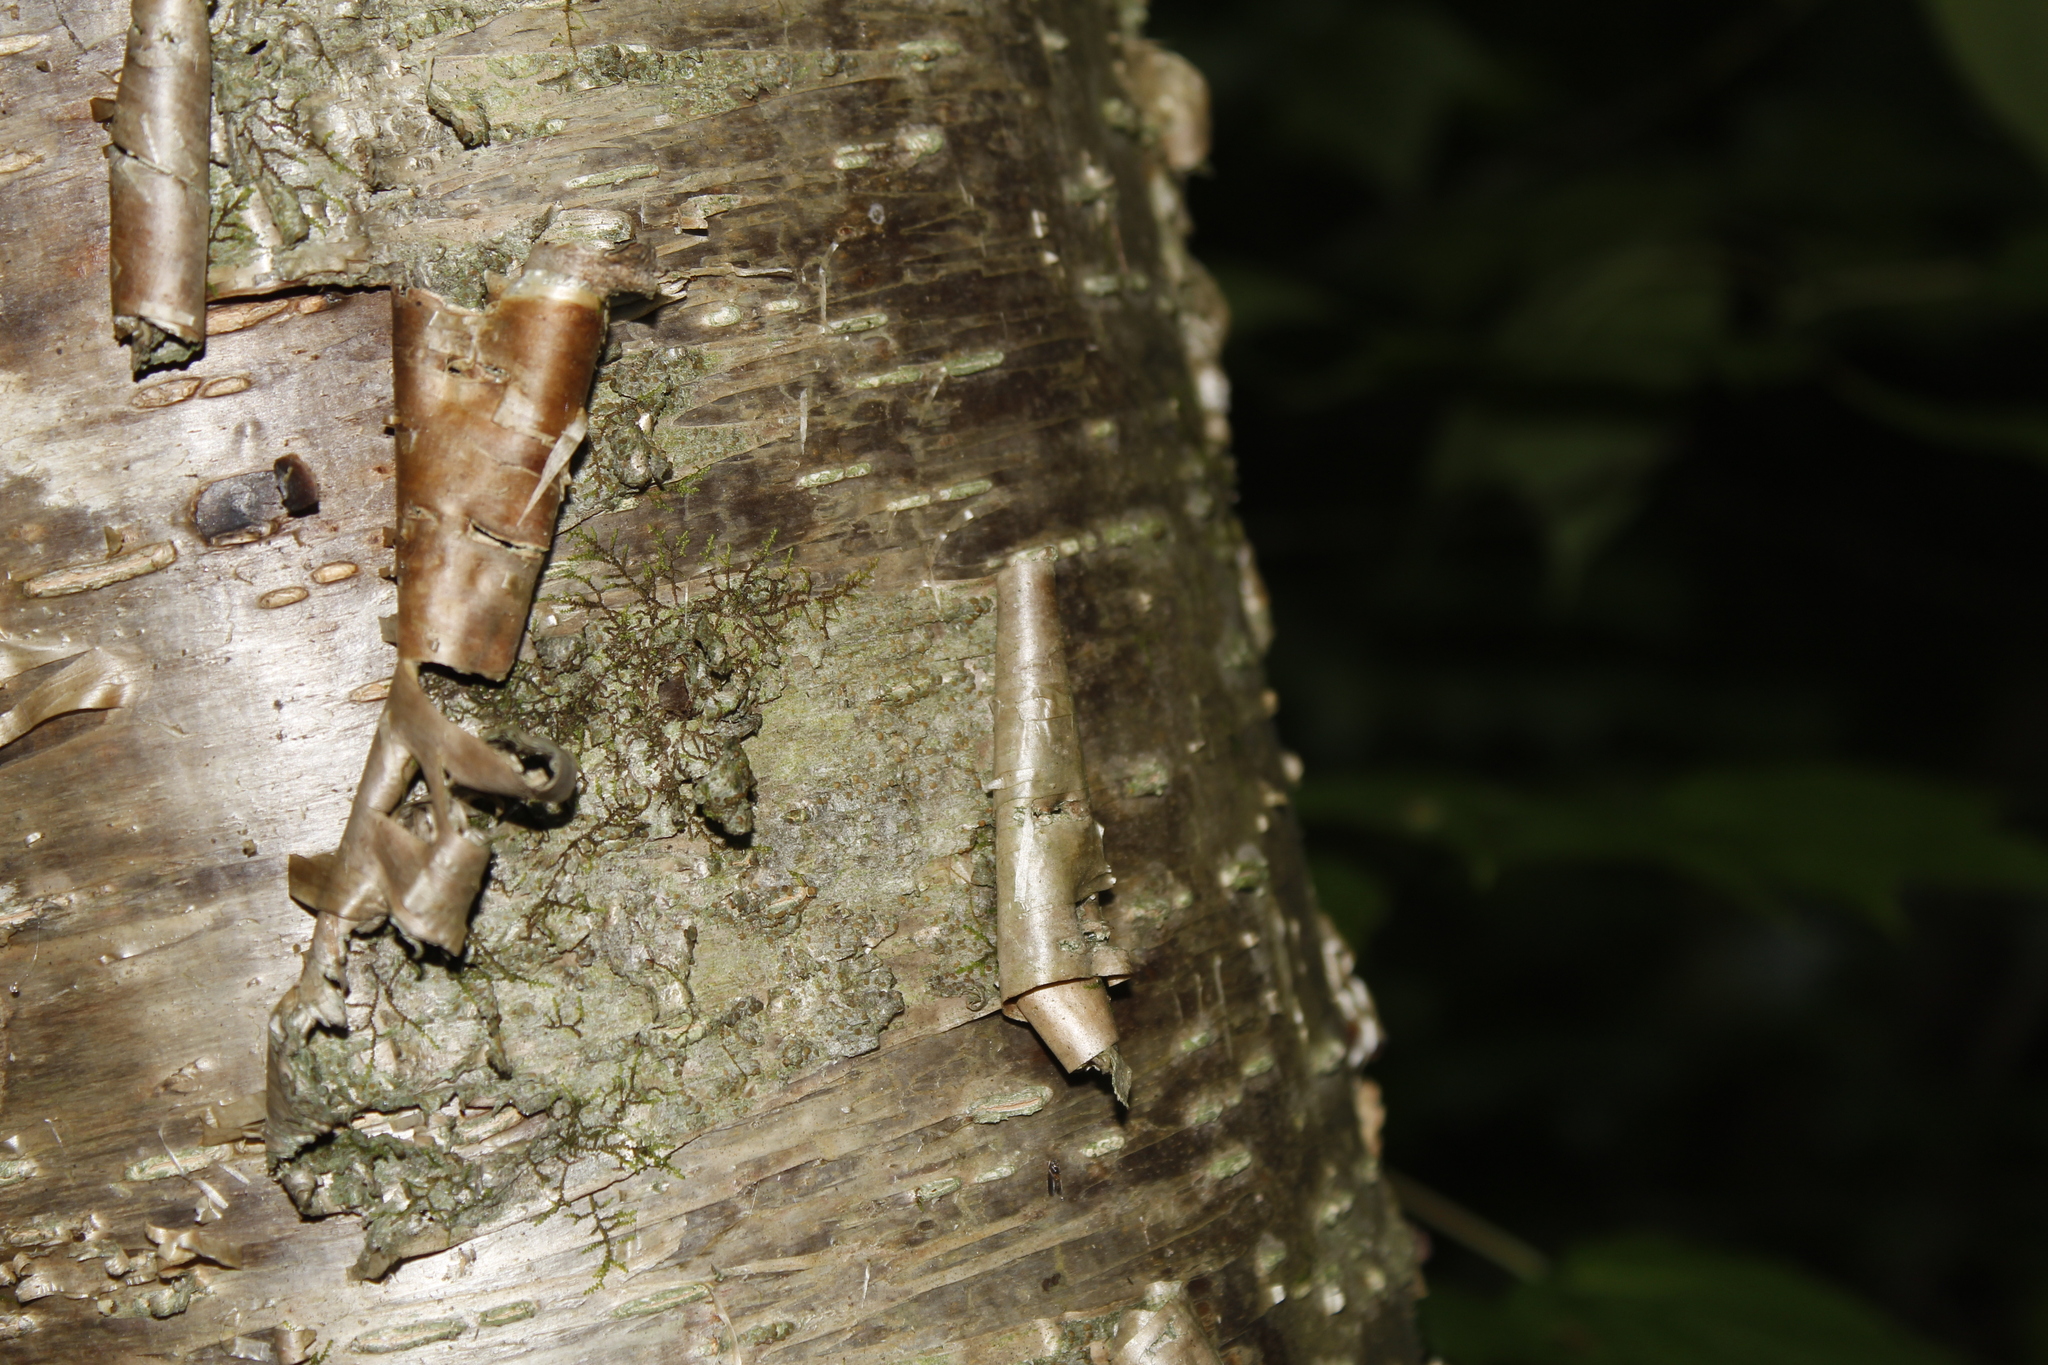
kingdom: Plantae
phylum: Tracheophyta
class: Magnoliopsida
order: Fagales
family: Betulaceae
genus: Betula
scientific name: Betula alleghaniensis
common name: Yellow birch
